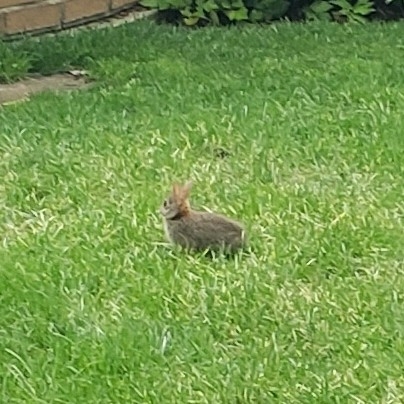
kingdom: Animalia
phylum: Chordata
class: Mammalia
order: Lagomorpha
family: Leporidae
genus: Sylvilagus
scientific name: Sylvilagus floridanus
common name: Eastern cottontail
